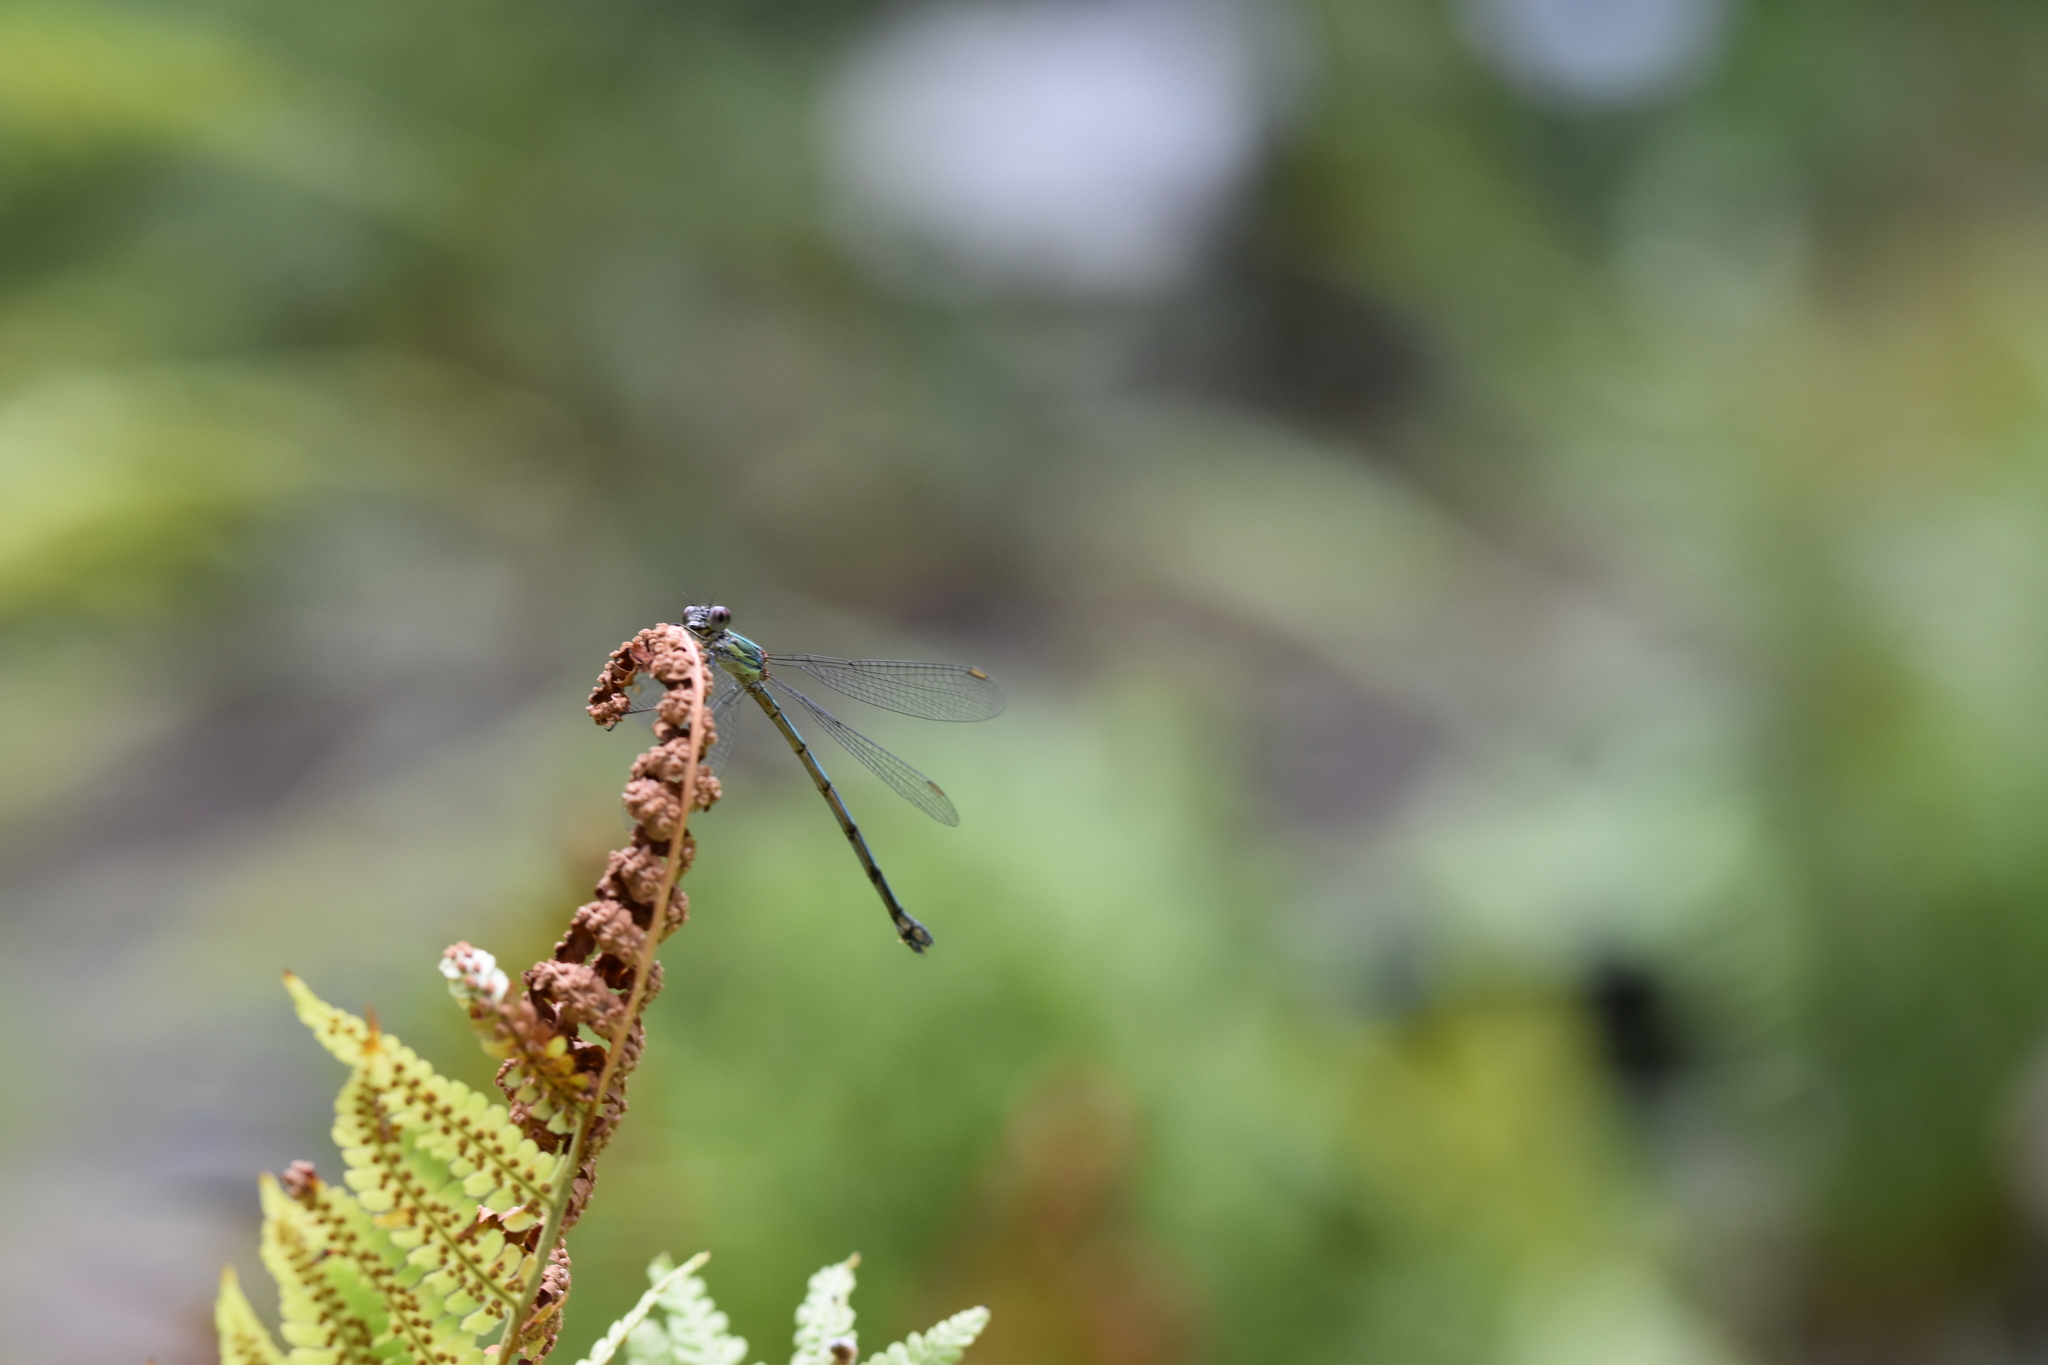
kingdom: Animalia
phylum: Arthropoda
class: Insecta
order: Odonata
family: Lestidae
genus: Chalcolestes
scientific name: Chalcolestes viridis
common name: Green emerald damselfly
